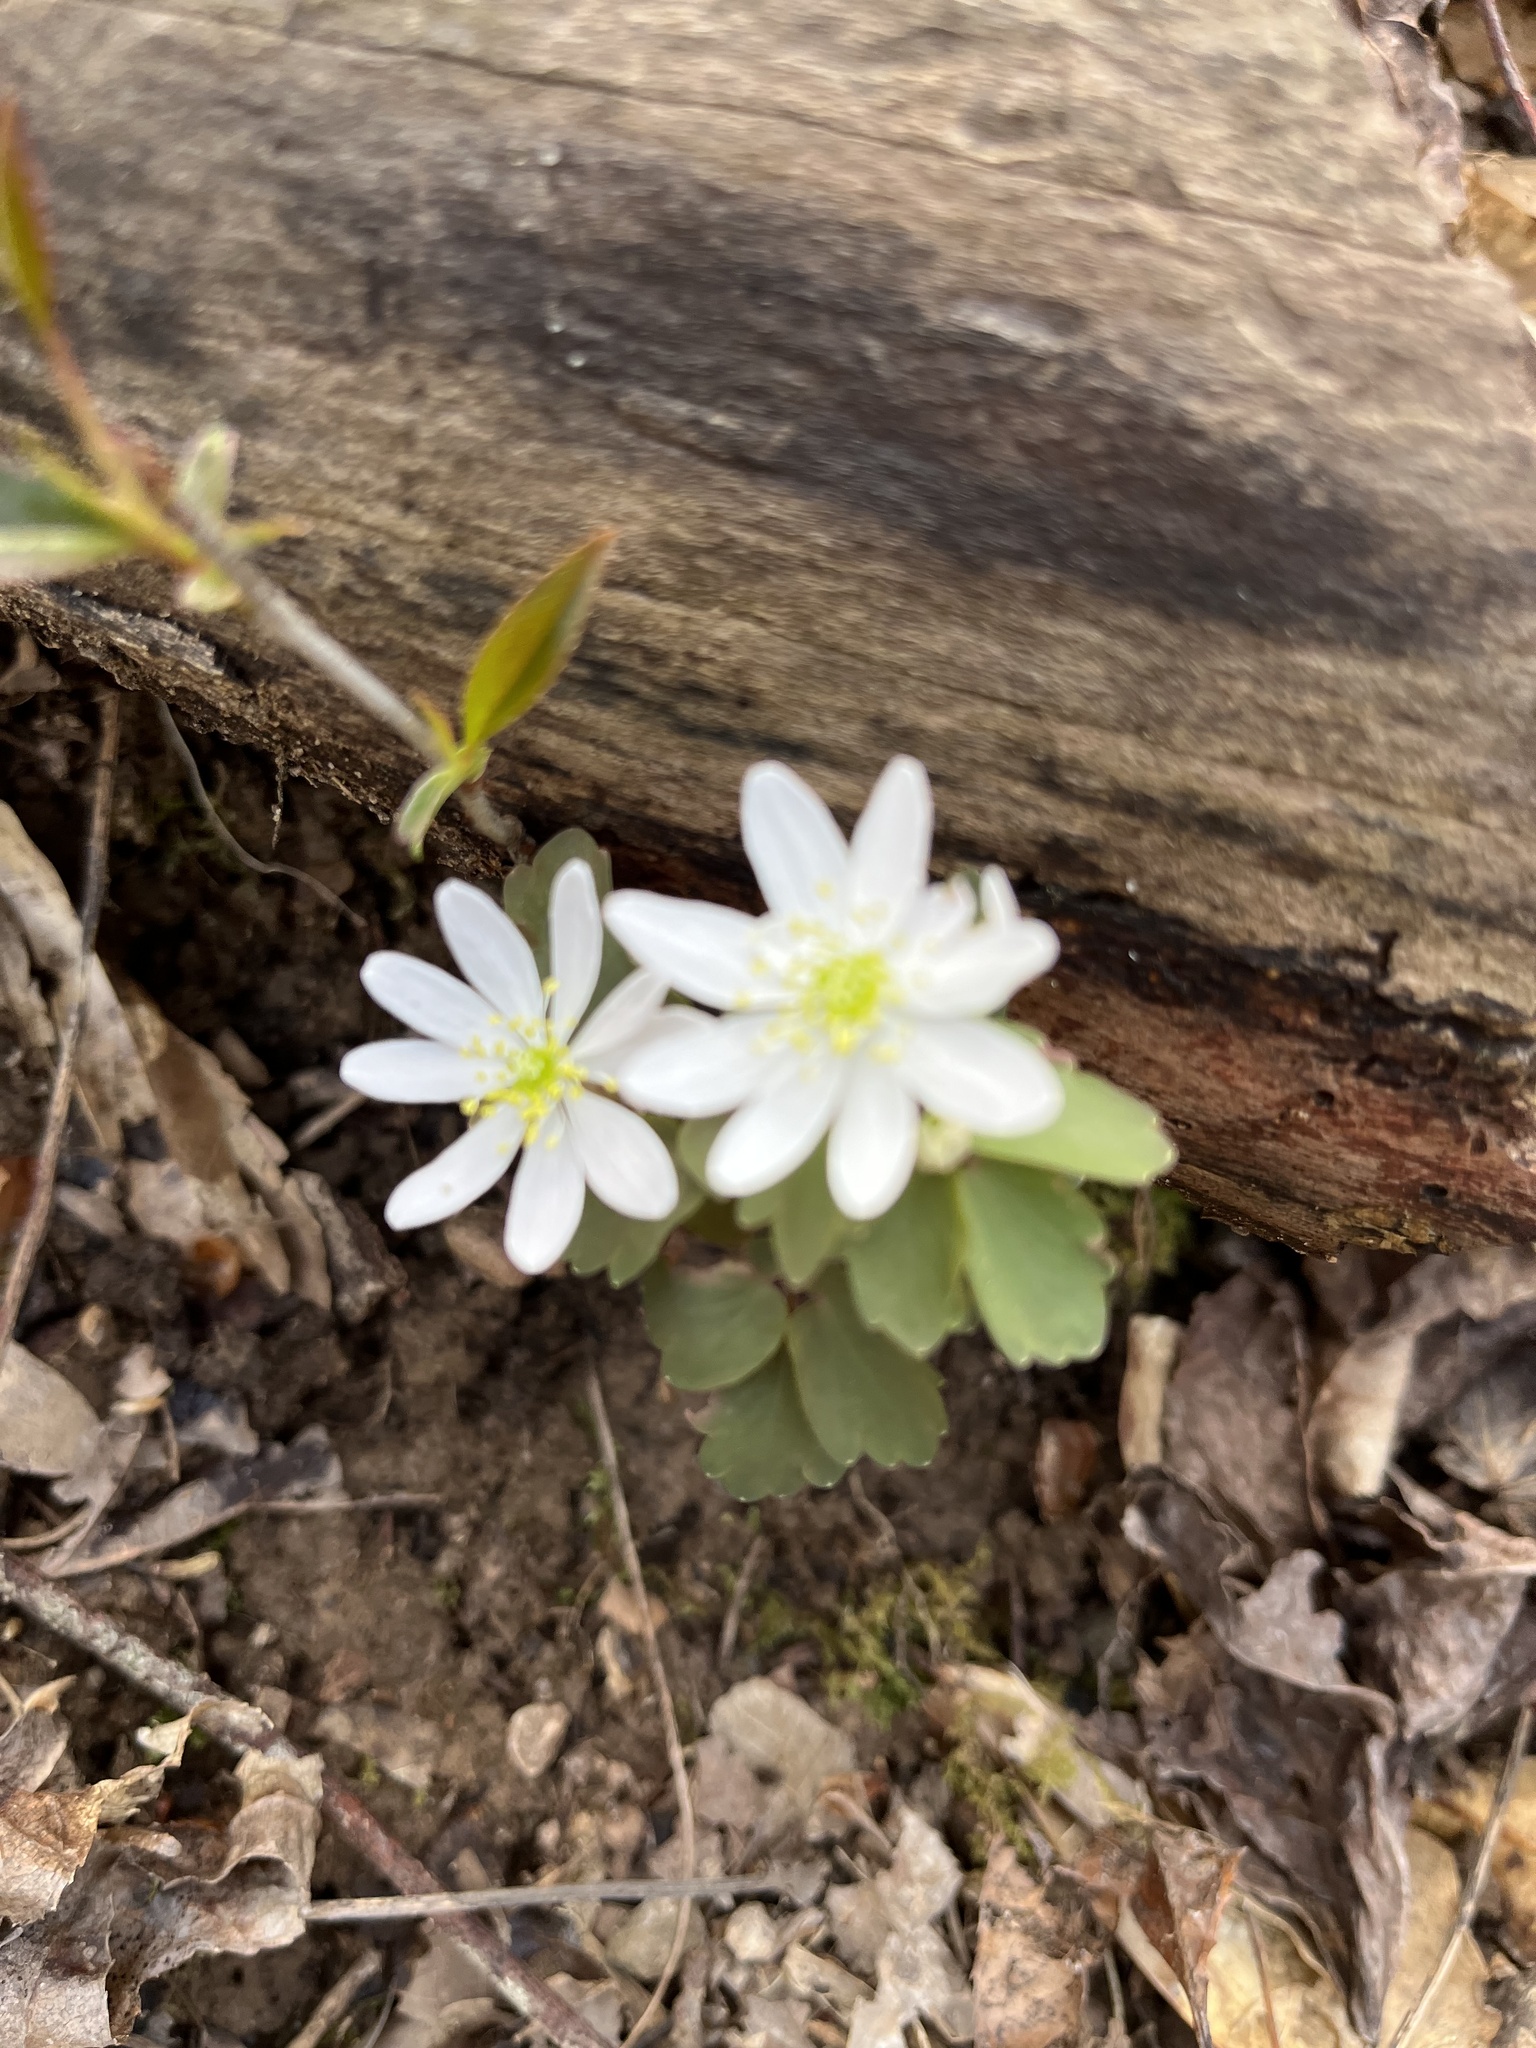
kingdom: Plantae
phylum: Tracheophyta
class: Magnoliopsida
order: Ranunculales
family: Ranunculaceae
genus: Thalictrum
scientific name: Thalictrum thalictroides
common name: Rue-anemone
